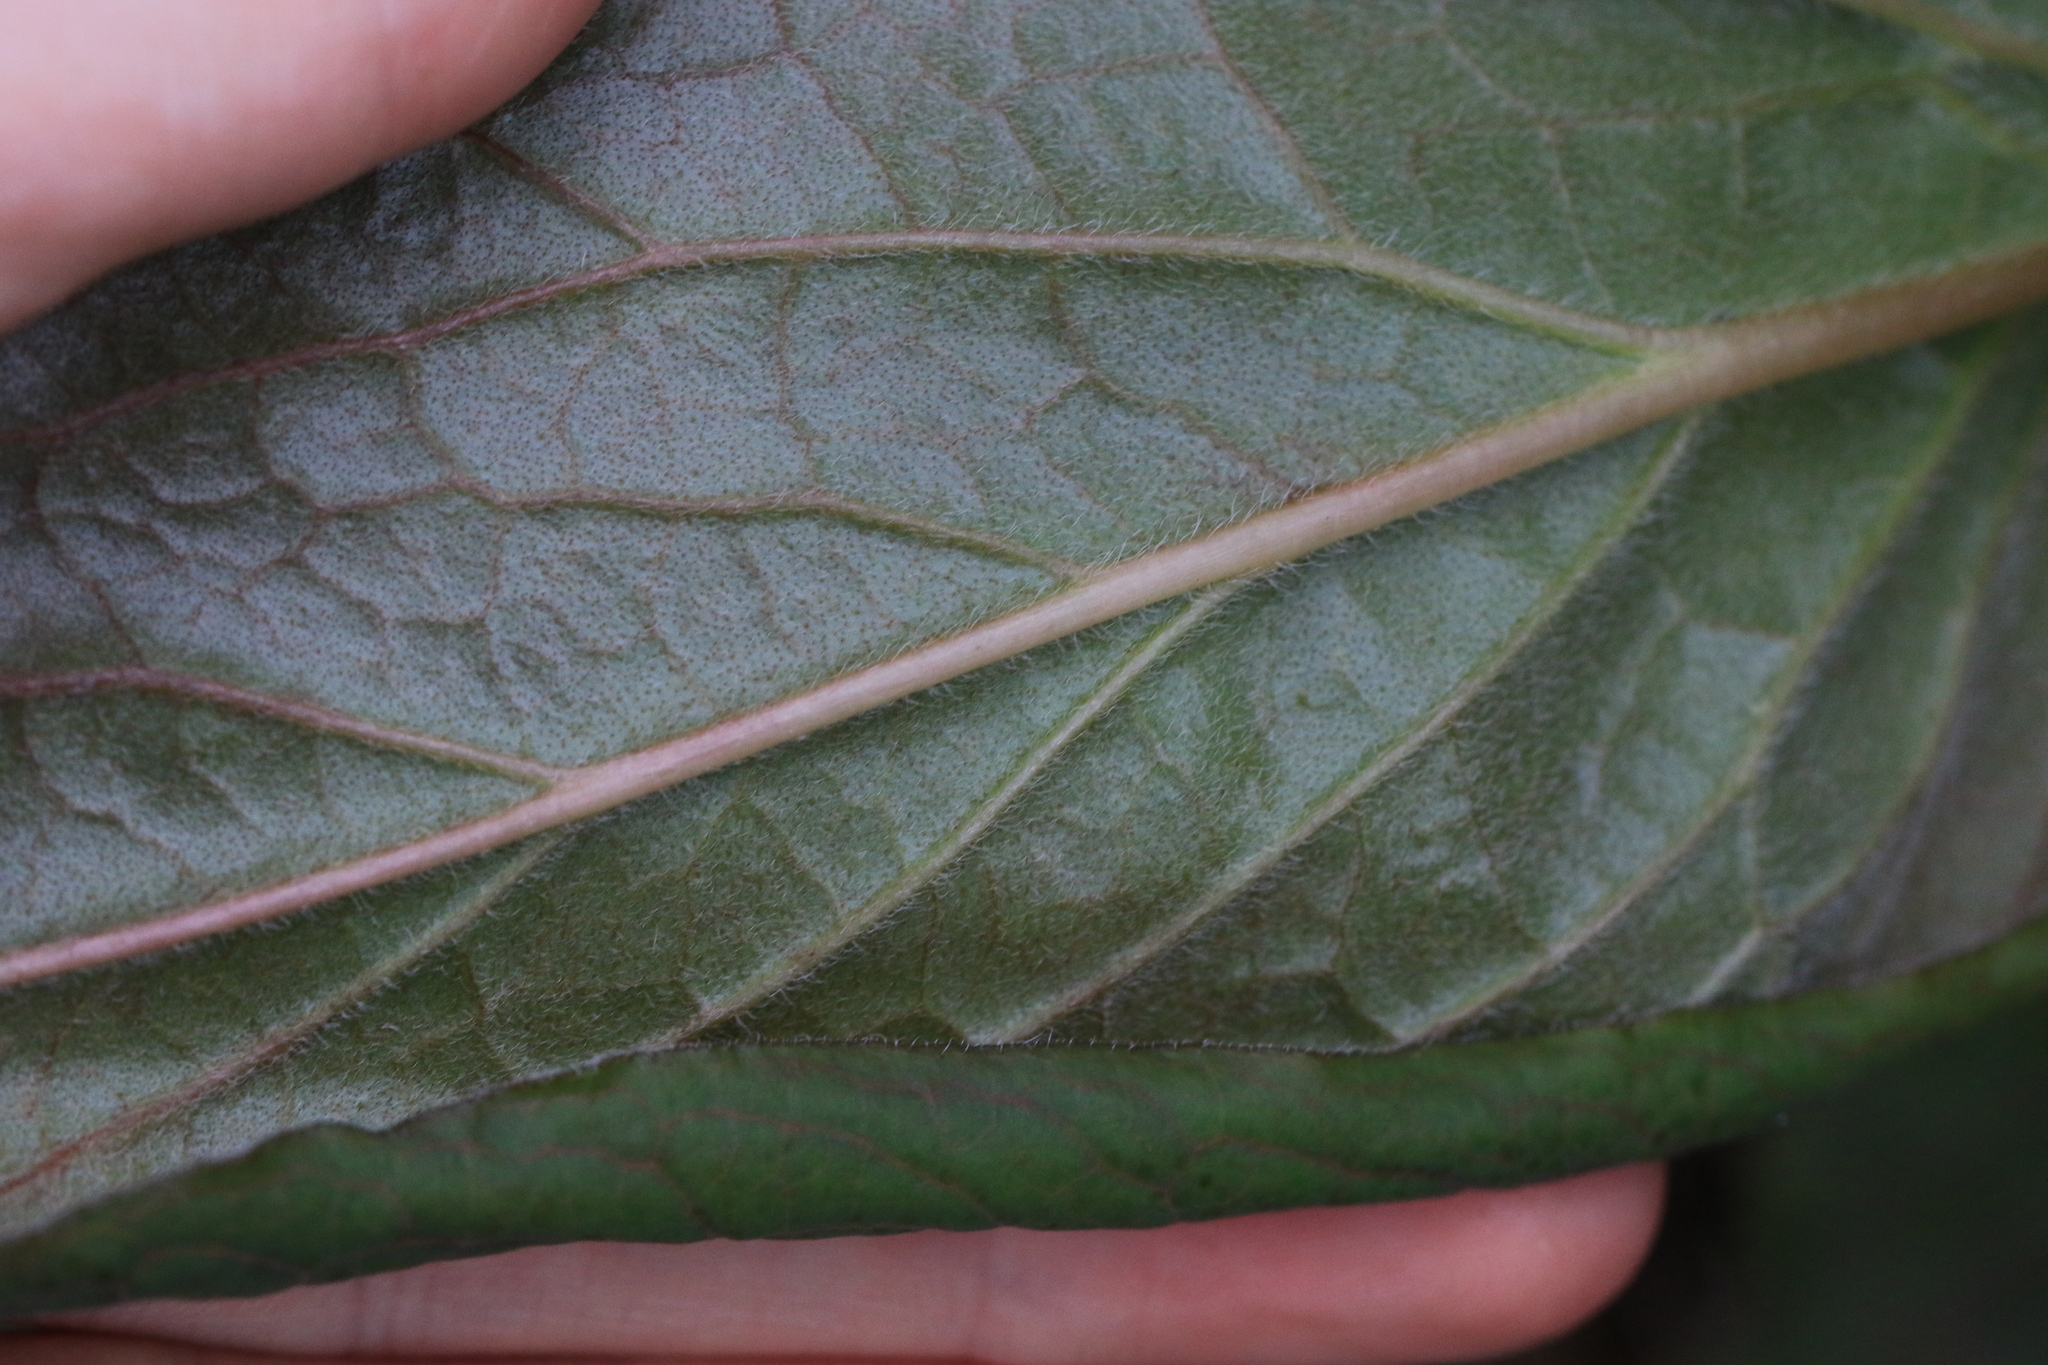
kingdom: Plantae
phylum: Tracheophyta
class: Magnoliopsida
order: Boraginales
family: Boraginaceae
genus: Adelinia
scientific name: Adelinia grande
